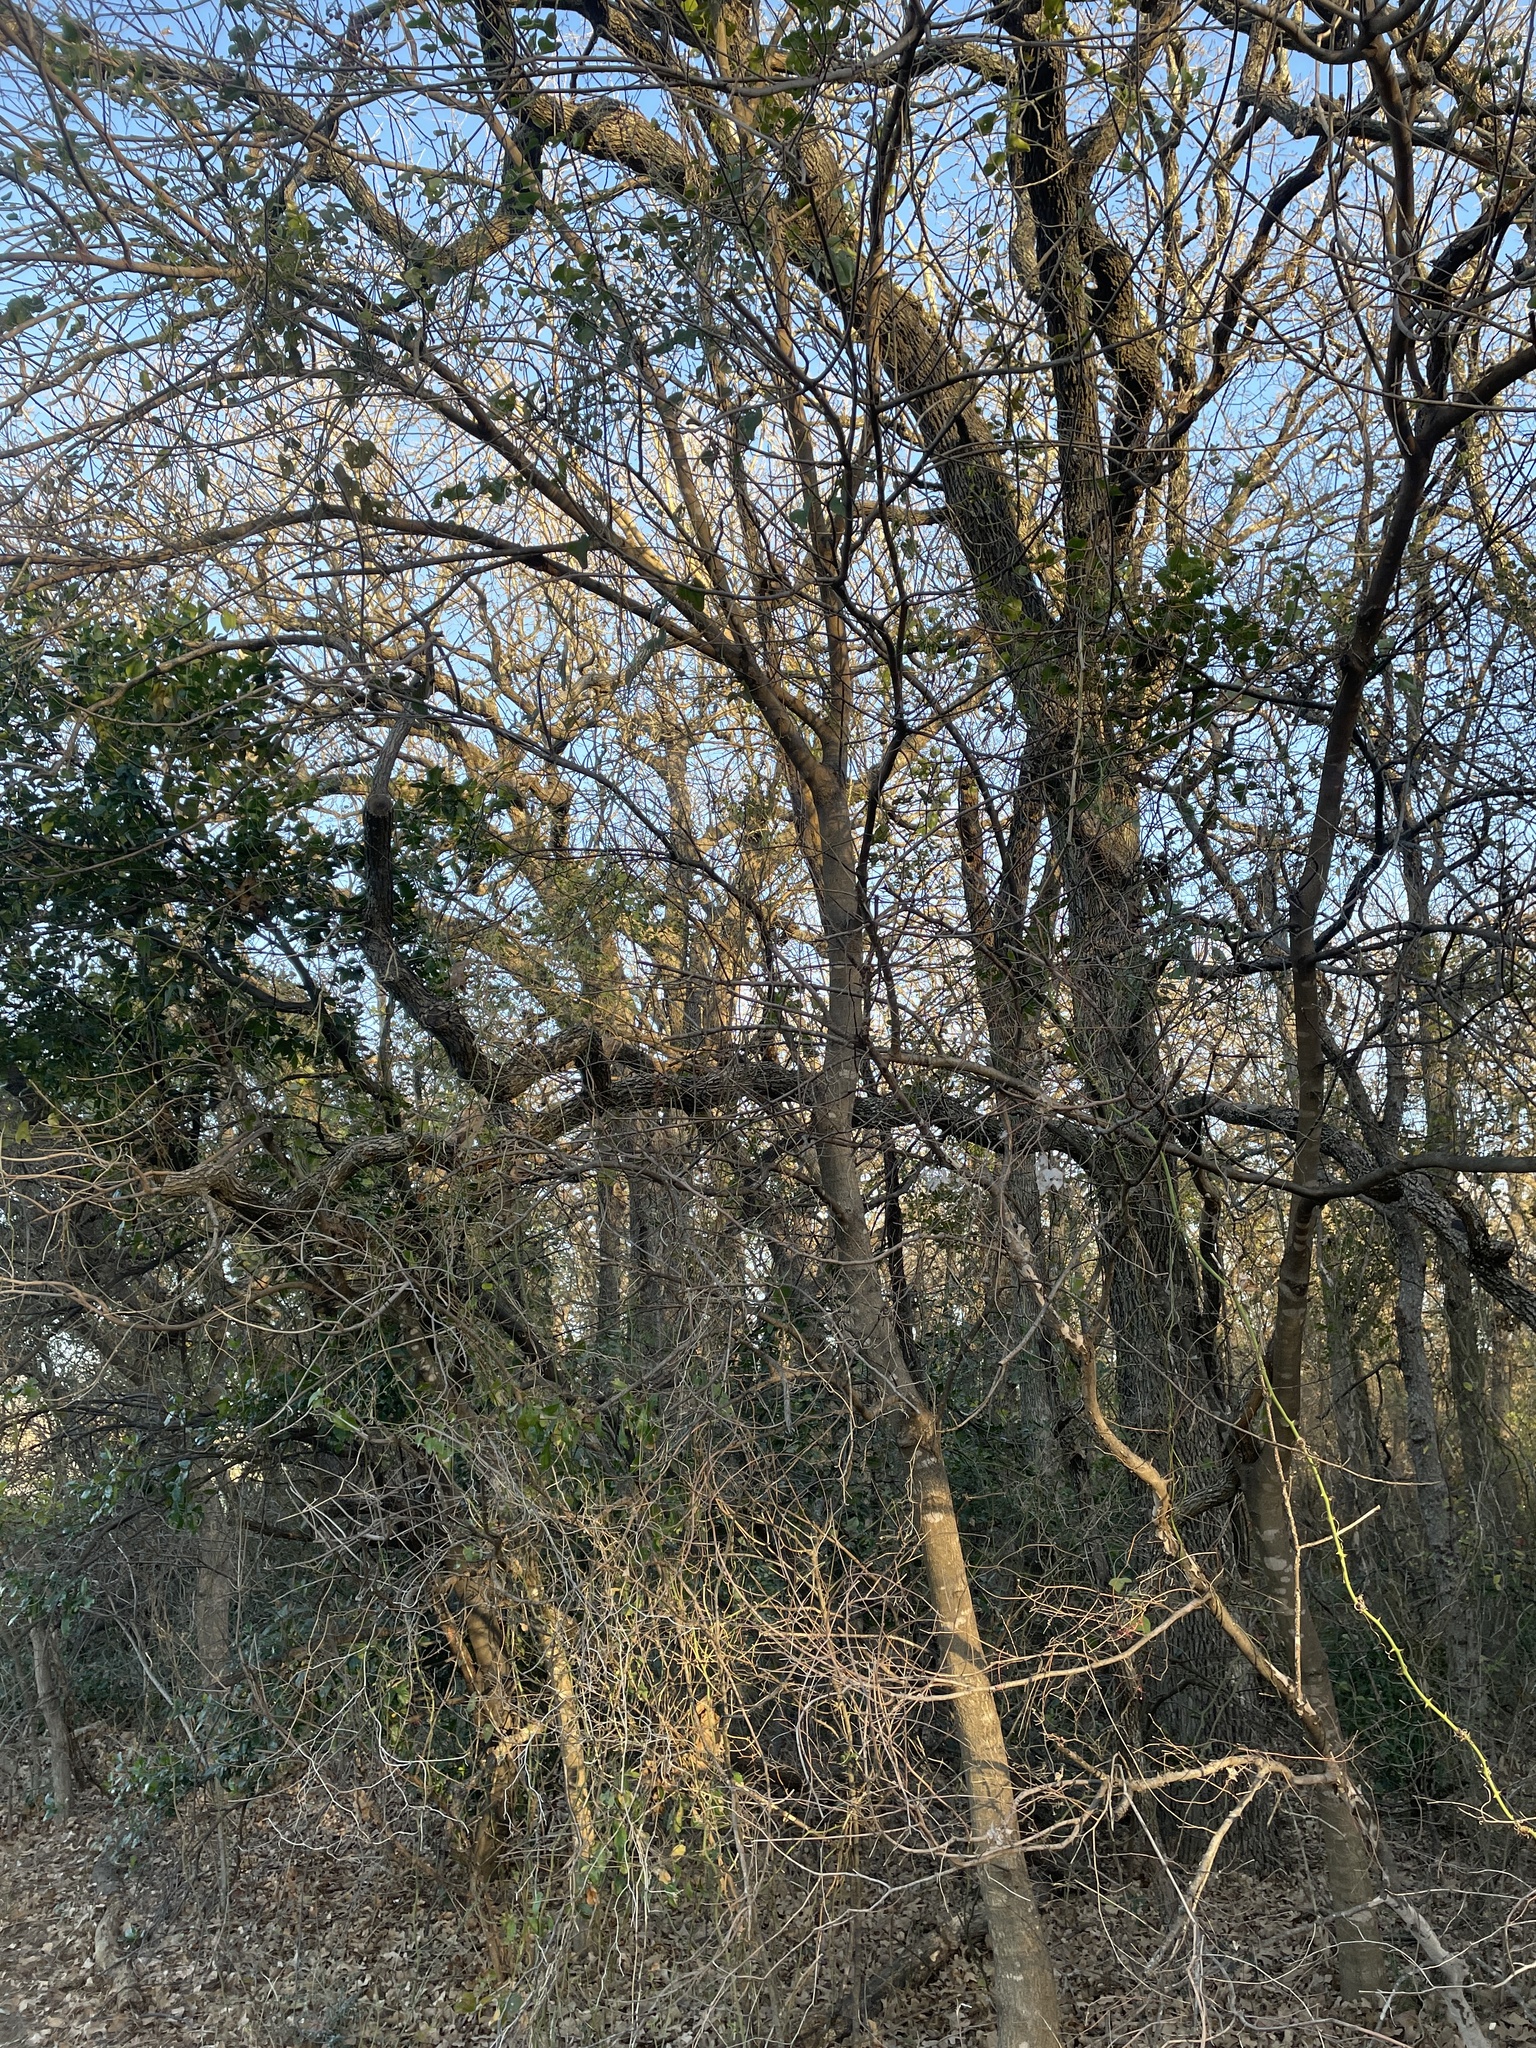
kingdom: Plantae
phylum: Tracheophyta
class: Magnoliopsida
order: Sapindales
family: Anacardiaceae
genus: Pistacia
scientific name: Pistacia chinensis
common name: Chinese pistache
